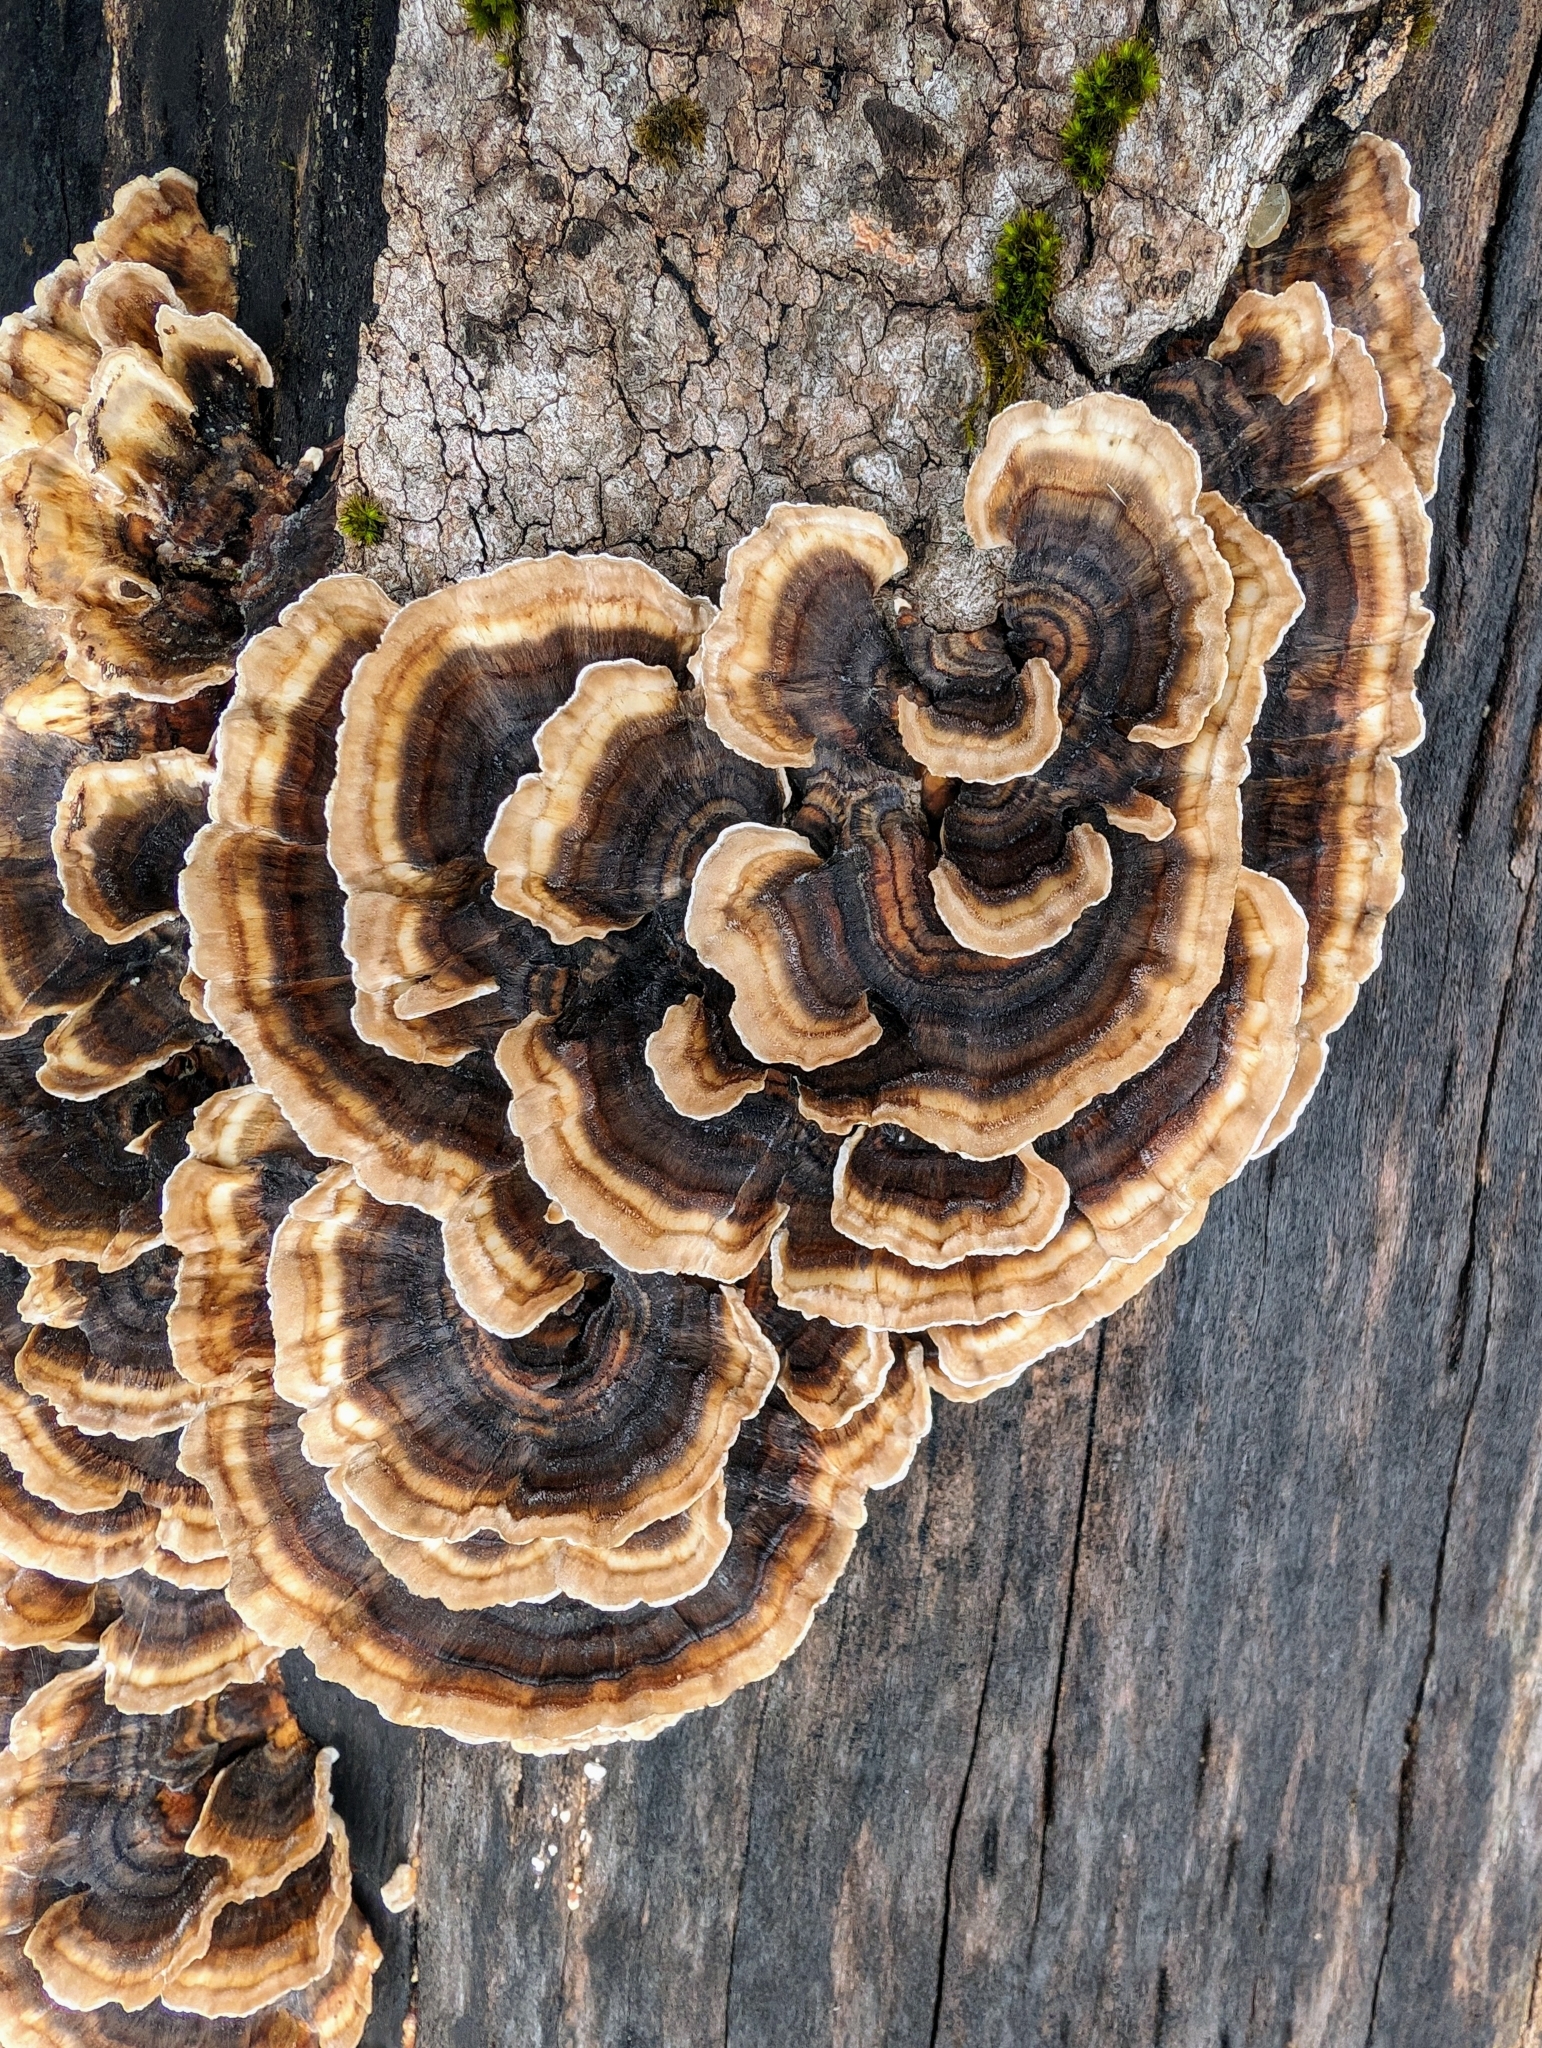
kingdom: Fungi
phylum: Basidiomycota
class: Agaricomycetes
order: Polyporales
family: Polyporaceae
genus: Trametes
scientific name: Trametes versicolor
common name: Turkeytail
